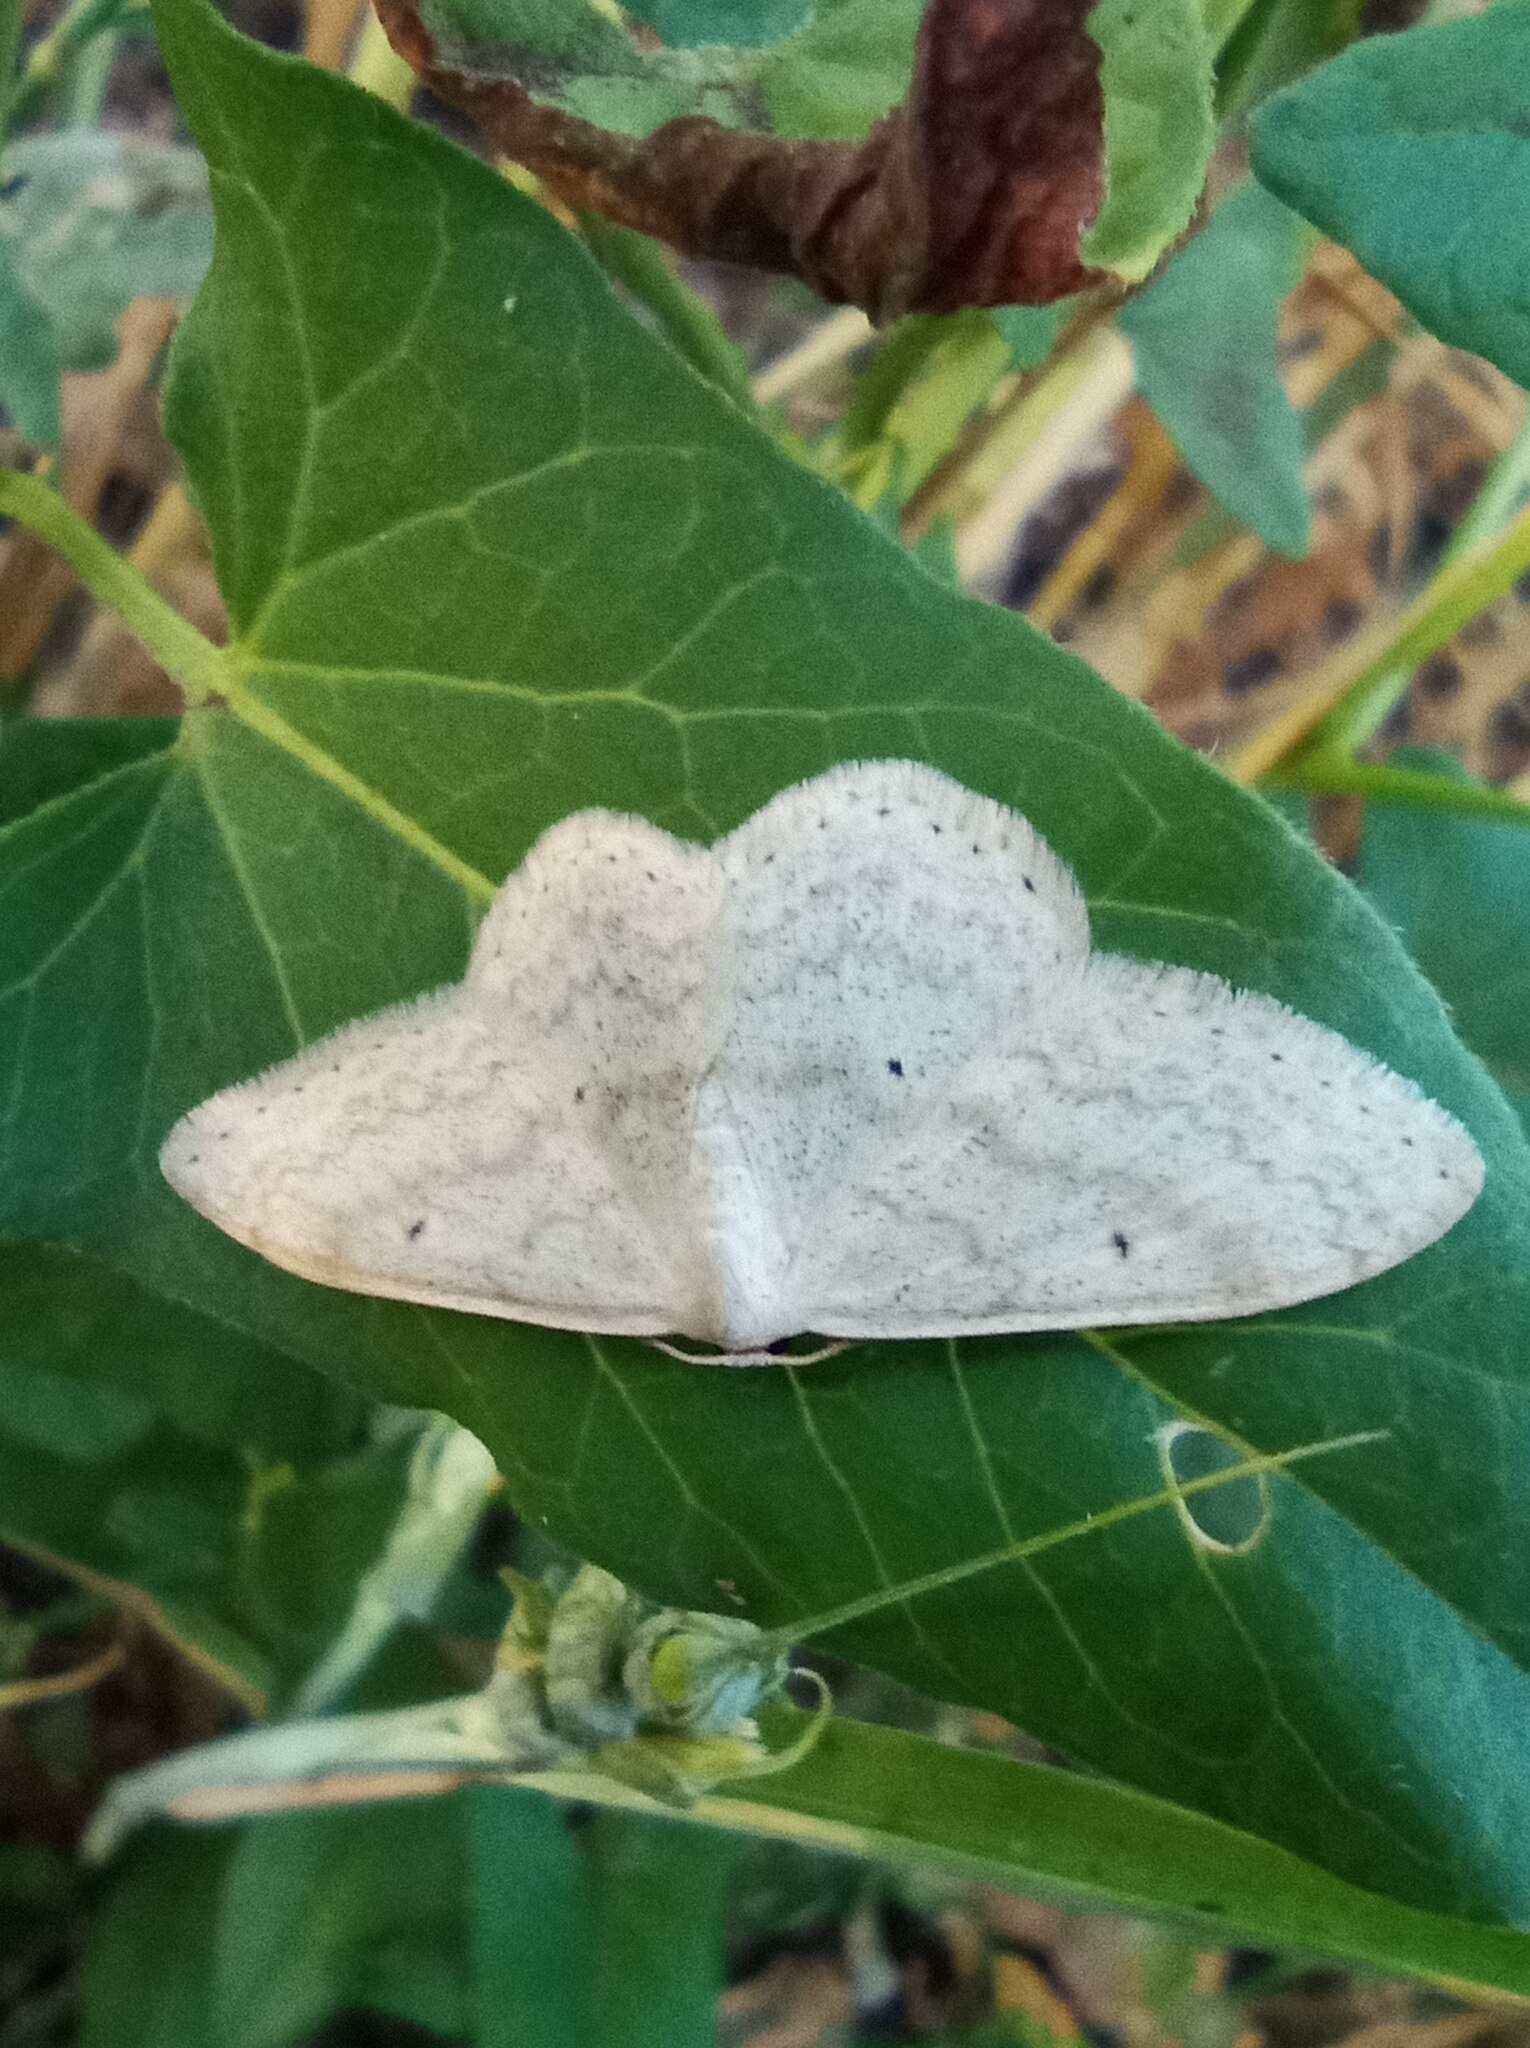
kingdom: Animalia
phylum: Arthropoda
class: Insecta
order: Lepidoptera
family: Geometridae
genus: Scopula
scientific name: Scopula incanata
